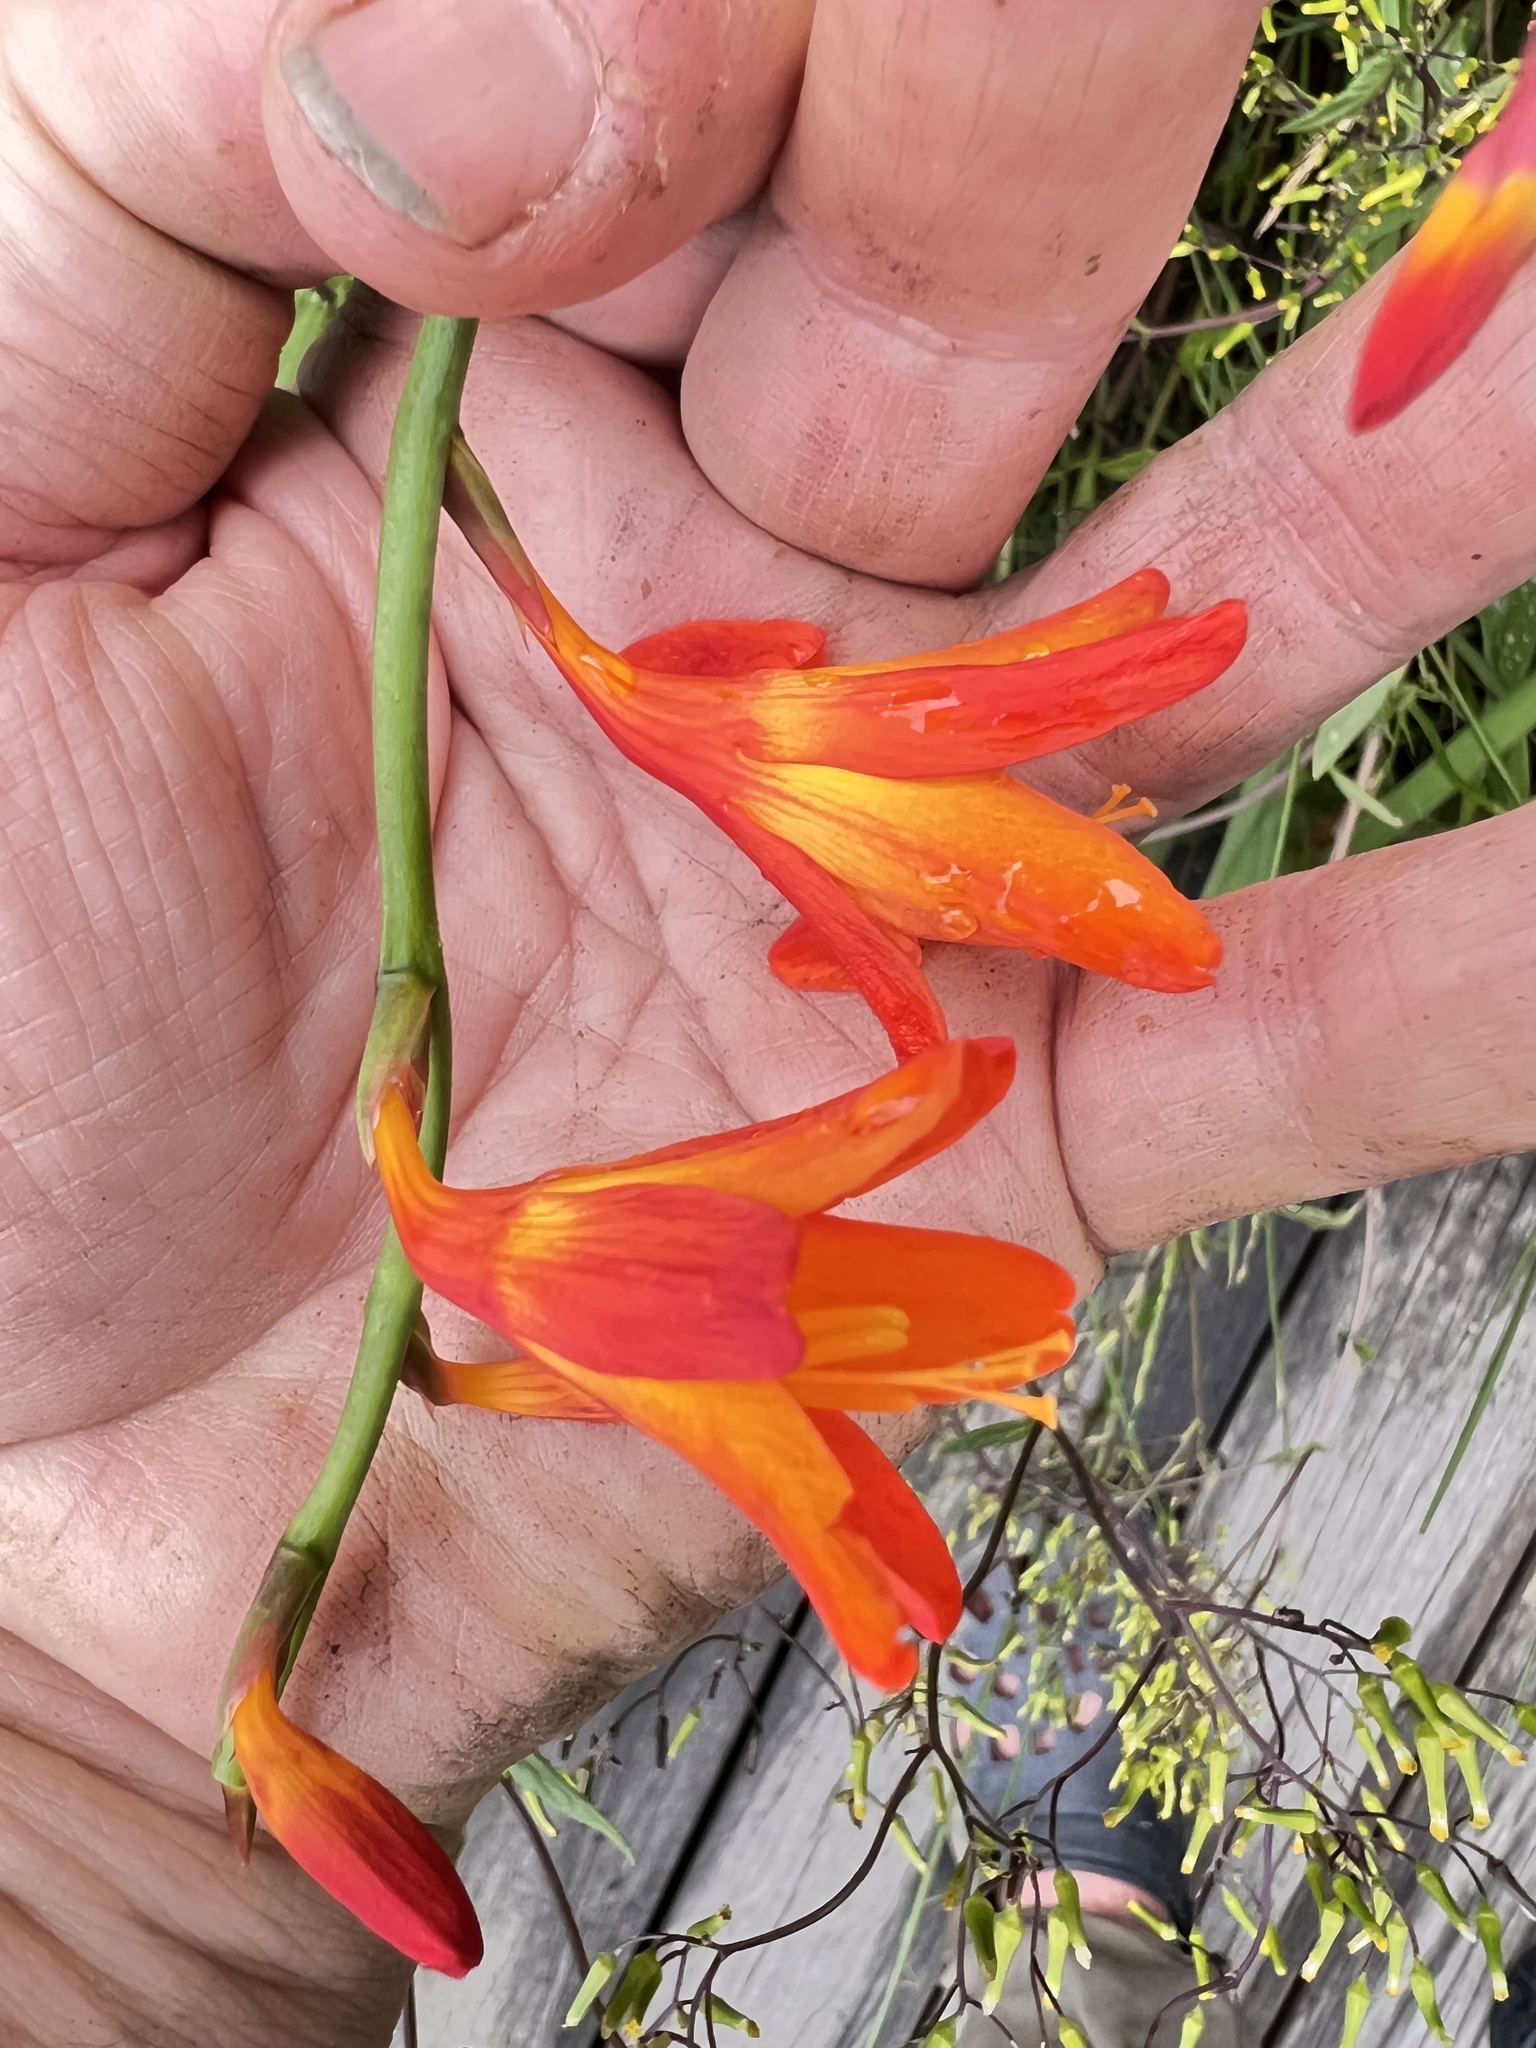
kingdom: Plantae
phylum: Tracheophyta
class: Liliopsida
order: Asparagales
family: Iridaceae
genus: Crocosmia
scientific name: Crocosmia crocosmiiflora
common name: Montbretia
